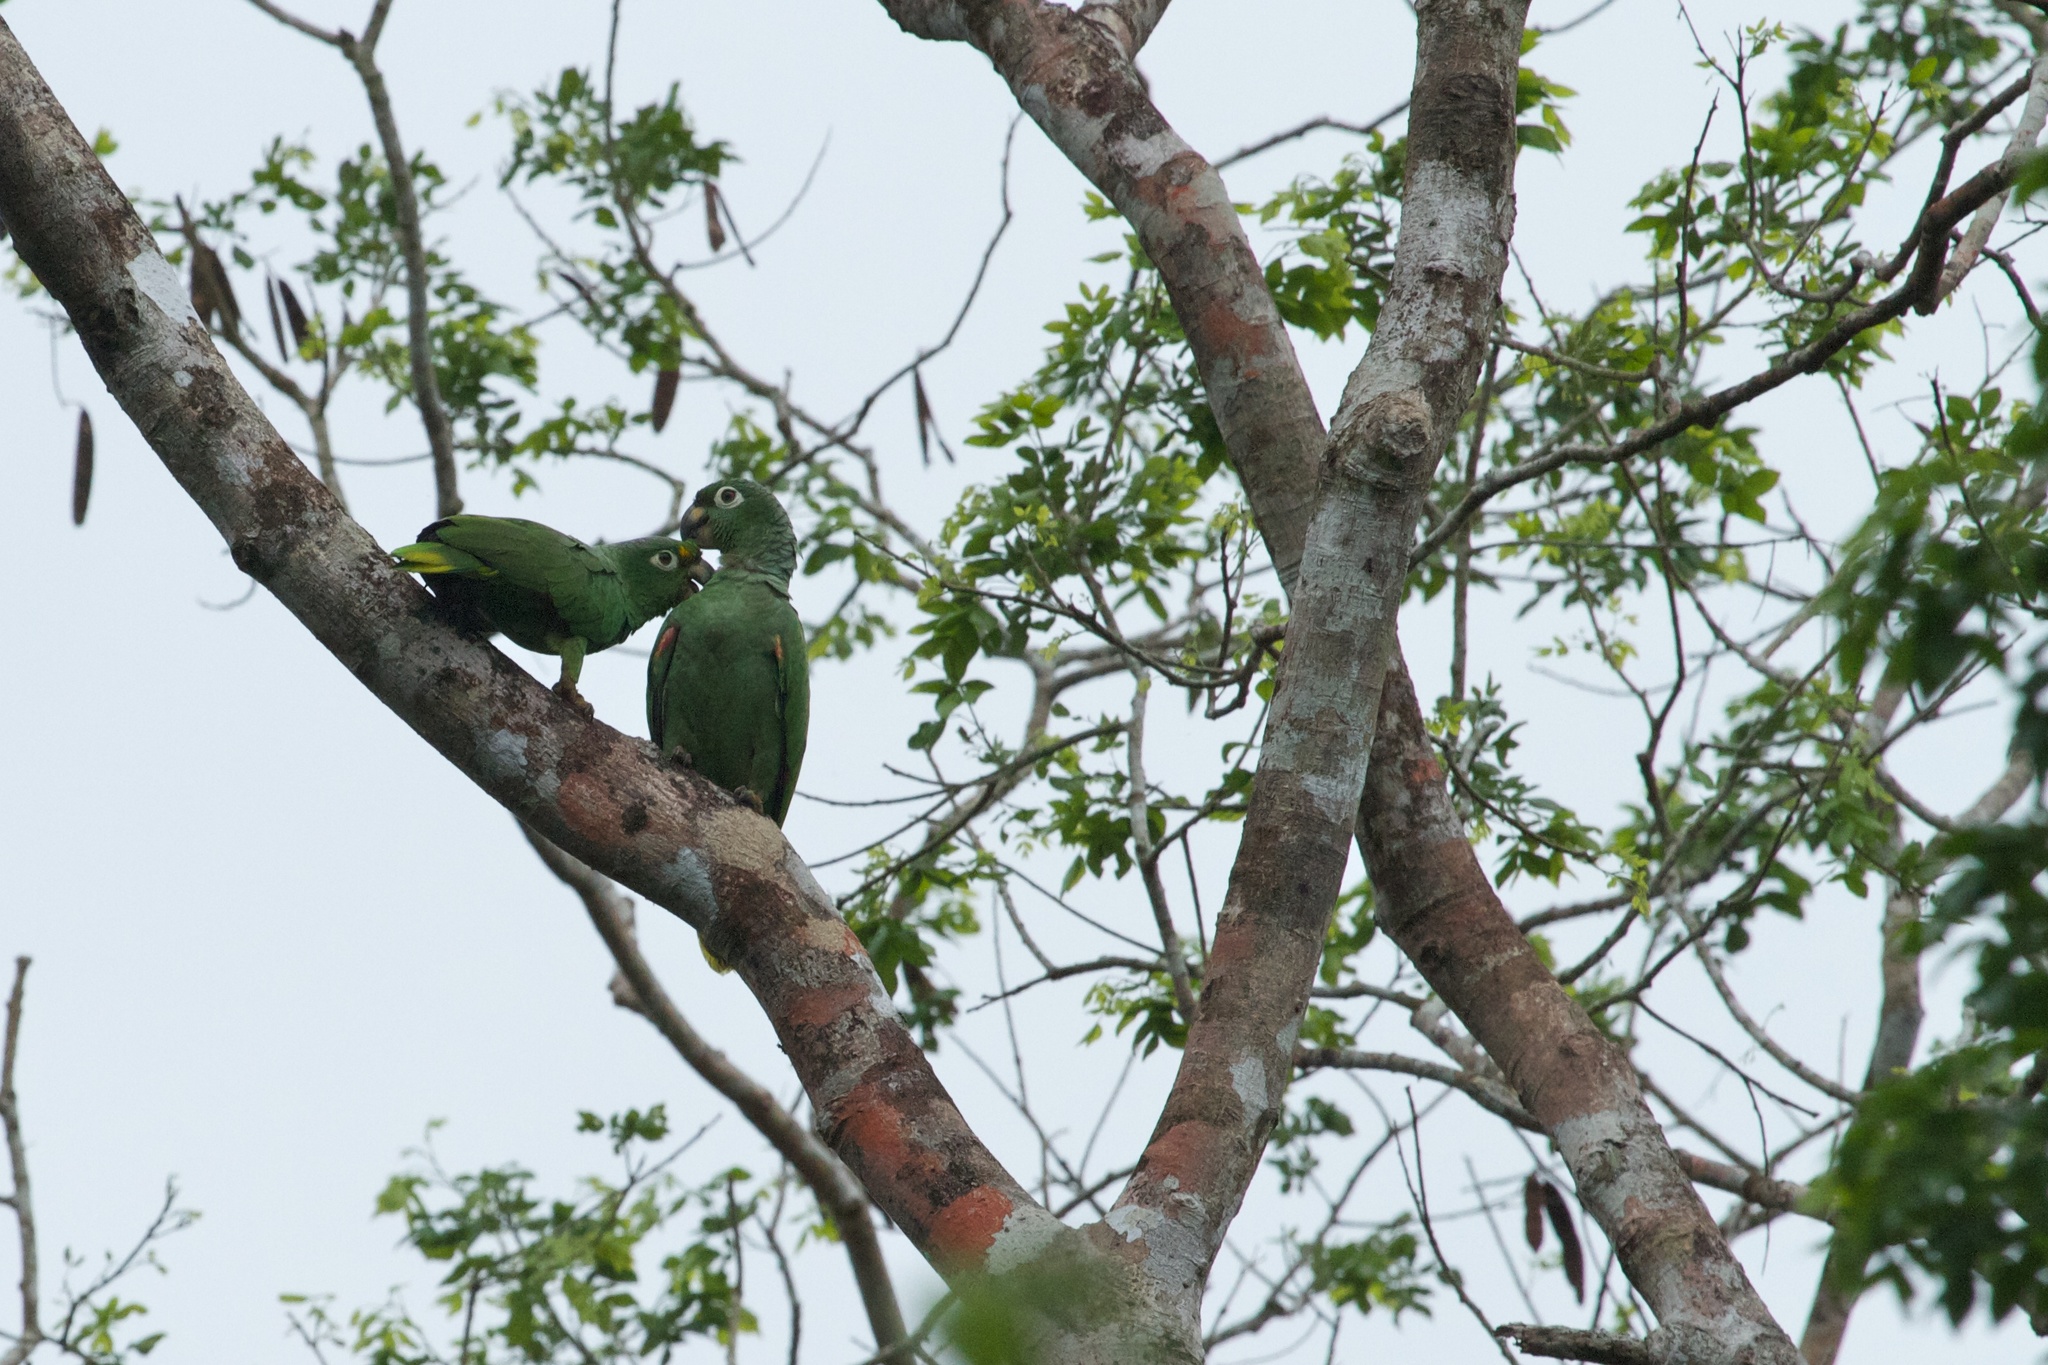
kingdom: Animalia
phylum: Chordata
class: Aves
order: Psittaciformes
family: Psittacidae
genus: Amazona
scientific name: Amazona farinosa
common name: Mealy parrot
